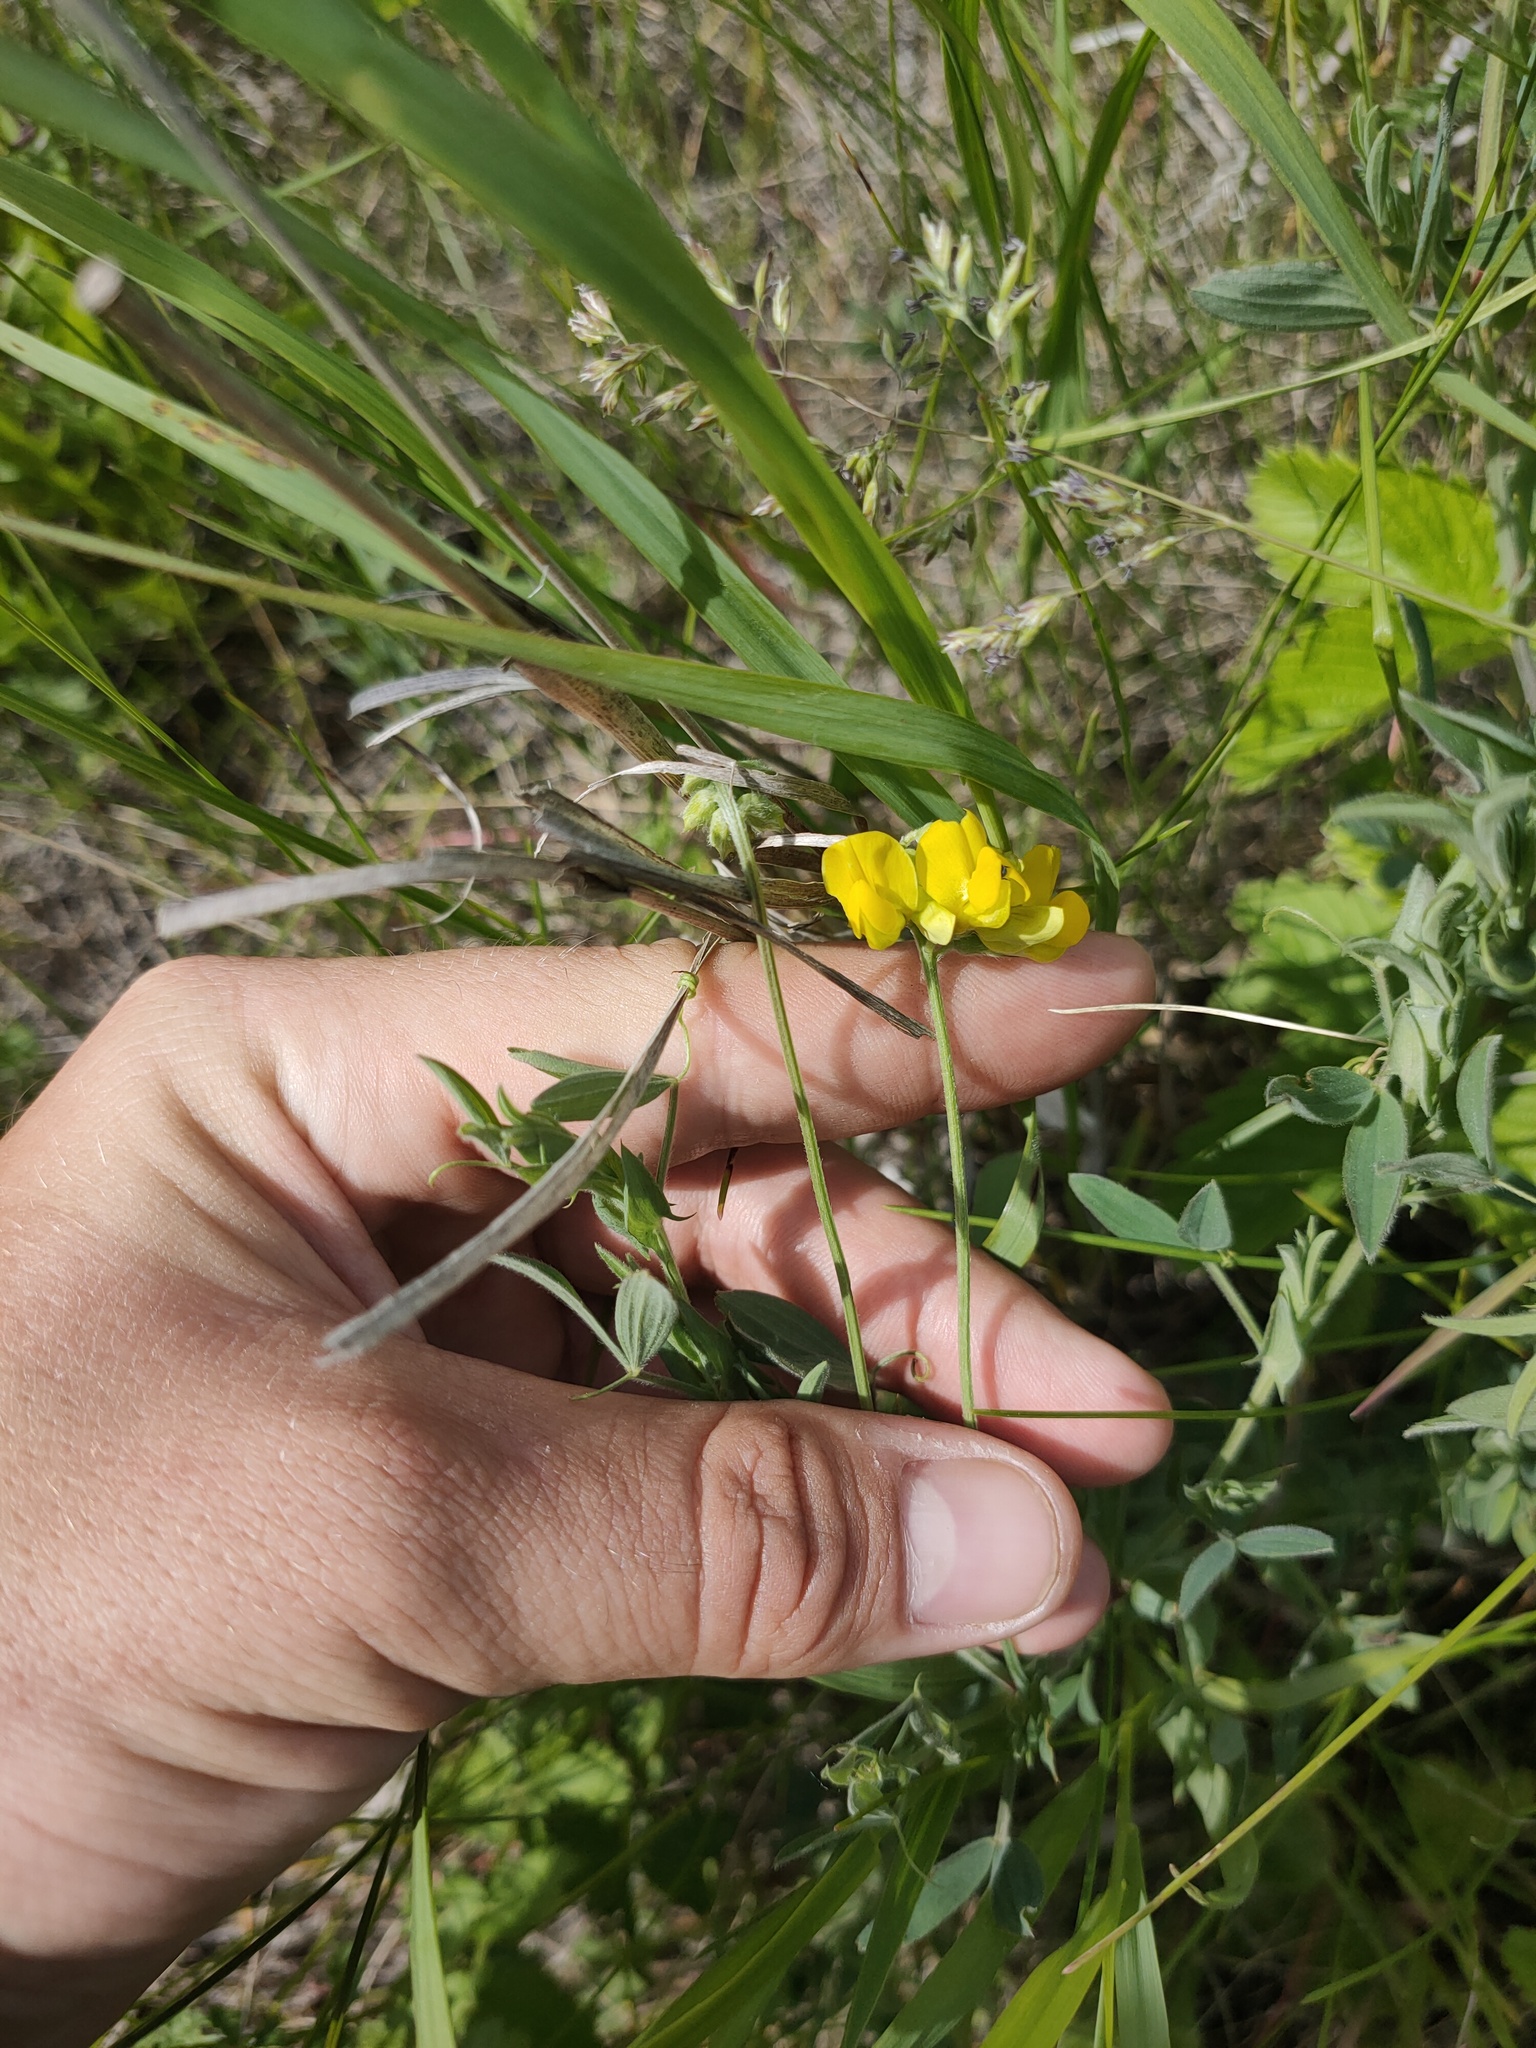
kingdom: Plantae
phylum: Tracheophyta
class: Magnoliopsida
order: Fabales
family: Fabaceae
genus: Lotus
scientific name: Lotus corniculatus
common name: Common bird's-foot-trefoil
